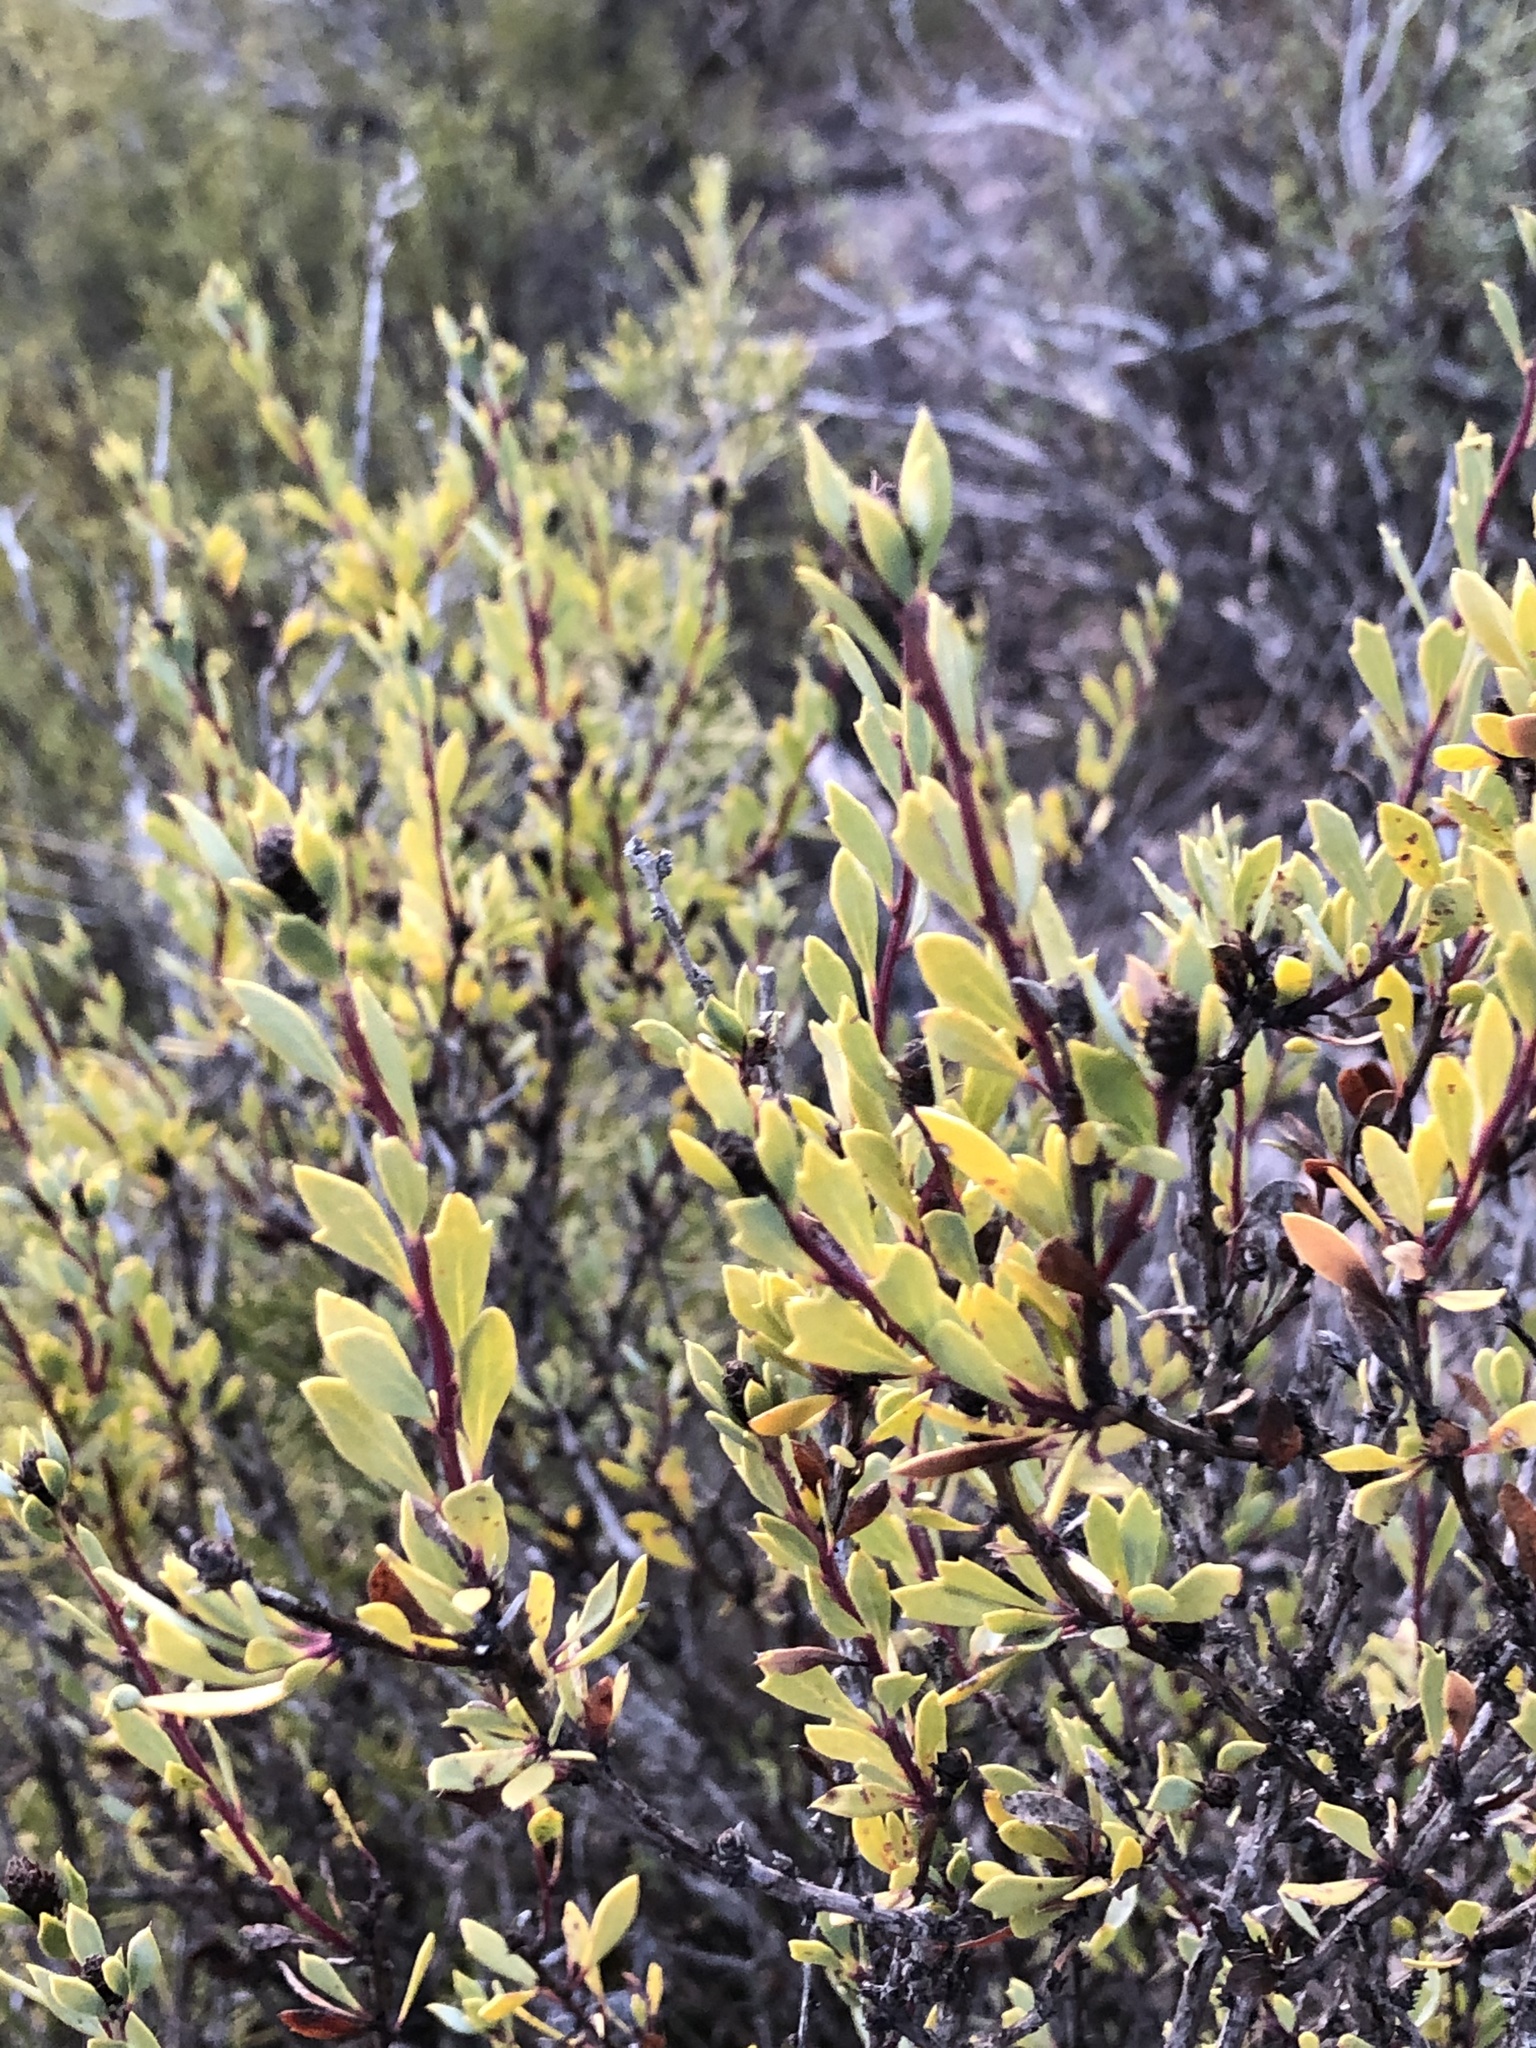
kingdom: Plantae
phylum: Tracheophyta
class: Magnoliopsida
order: Lamiales
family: Plantaginaceae
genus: Globularia
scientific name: Globularia alypum
